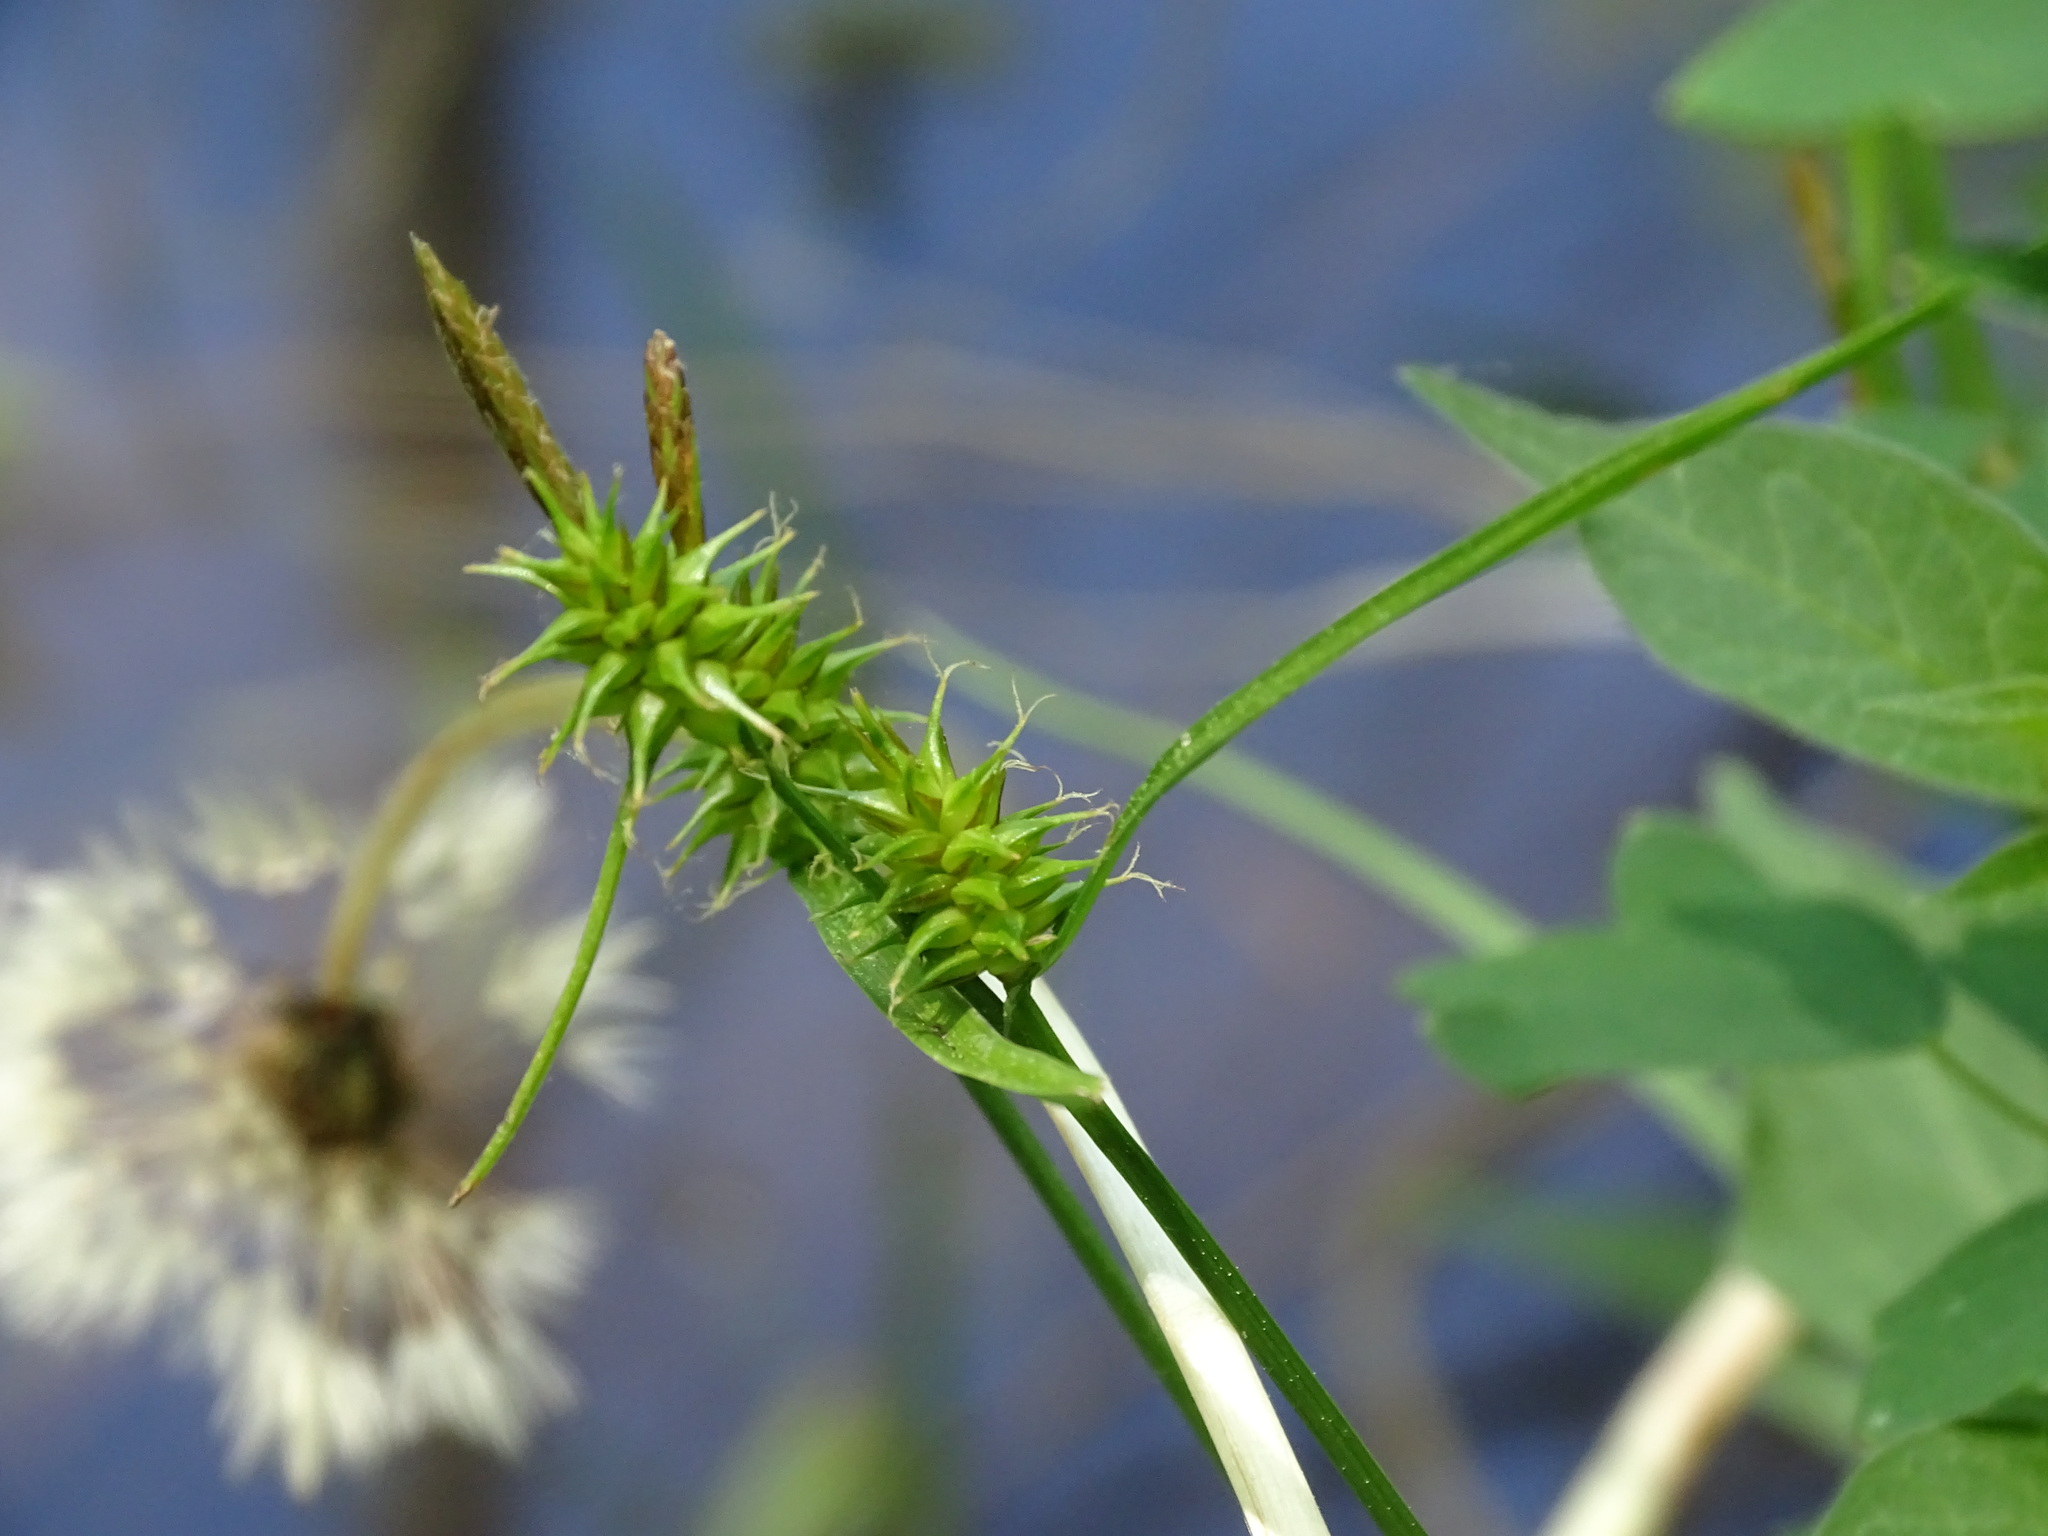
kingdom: Plantae
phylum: Tracheophyta
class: Liliopsida
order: Poales
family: Cyperaceae
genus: Carex
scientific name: Carex flava
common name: Large yellow-sedge
